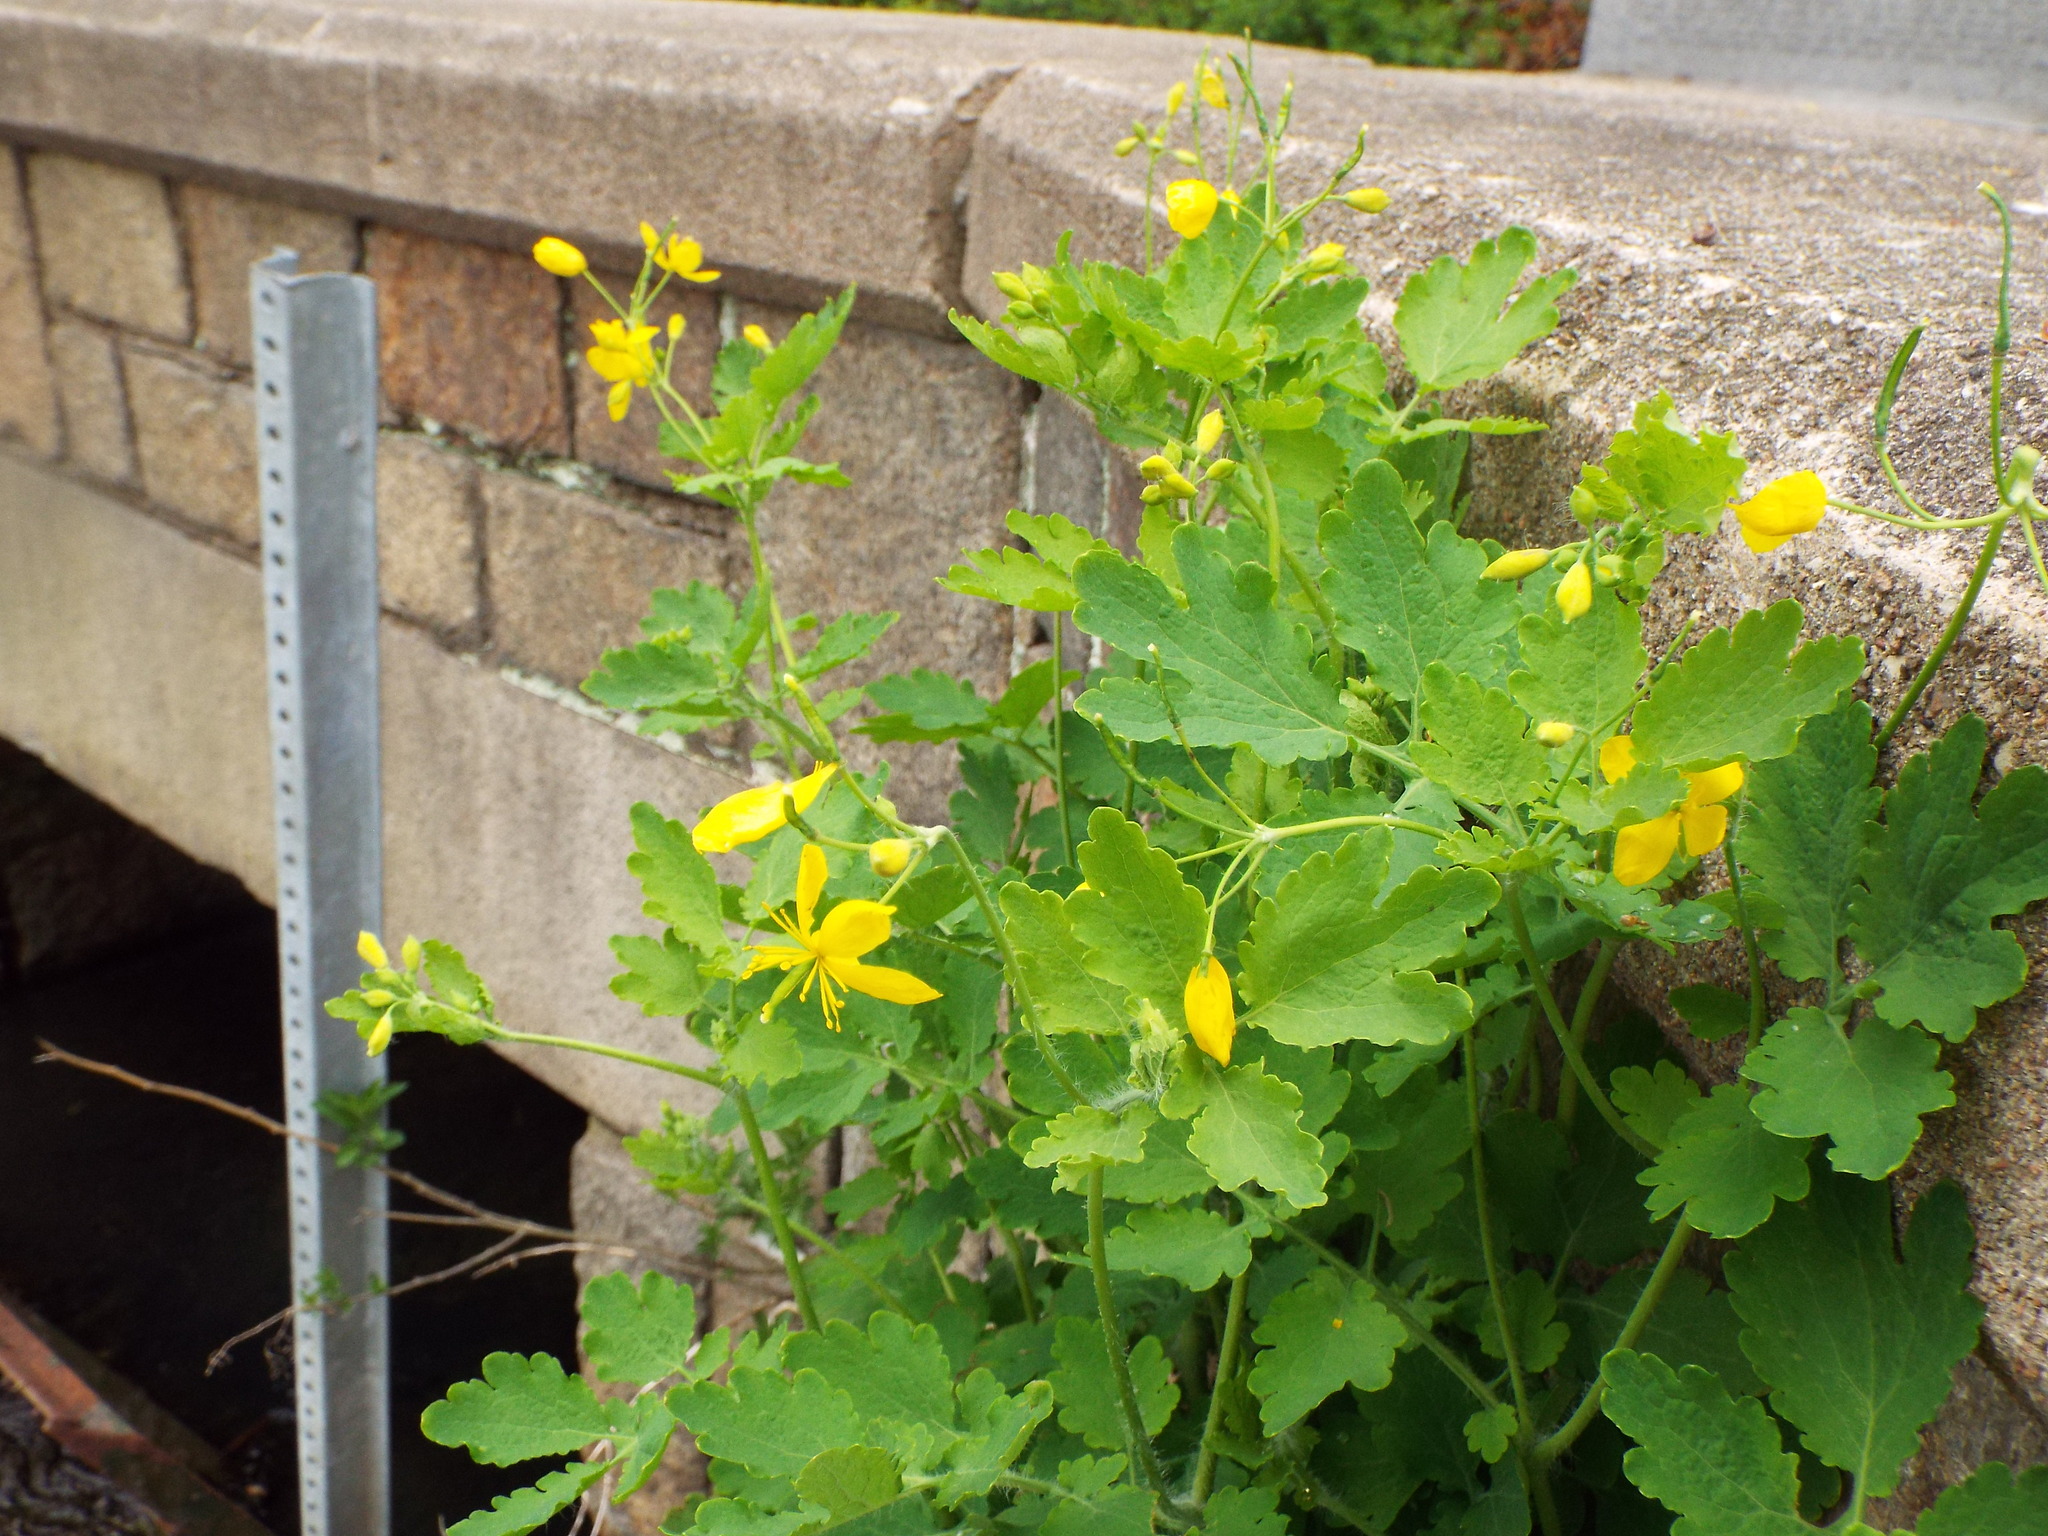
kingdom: Plantae
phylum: Tracheophyta
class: Magnoliopsida
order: Ranunculales
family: Papaveraceae
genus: Chelidonium
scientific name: Chelidonium majus
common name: Greater celandine
